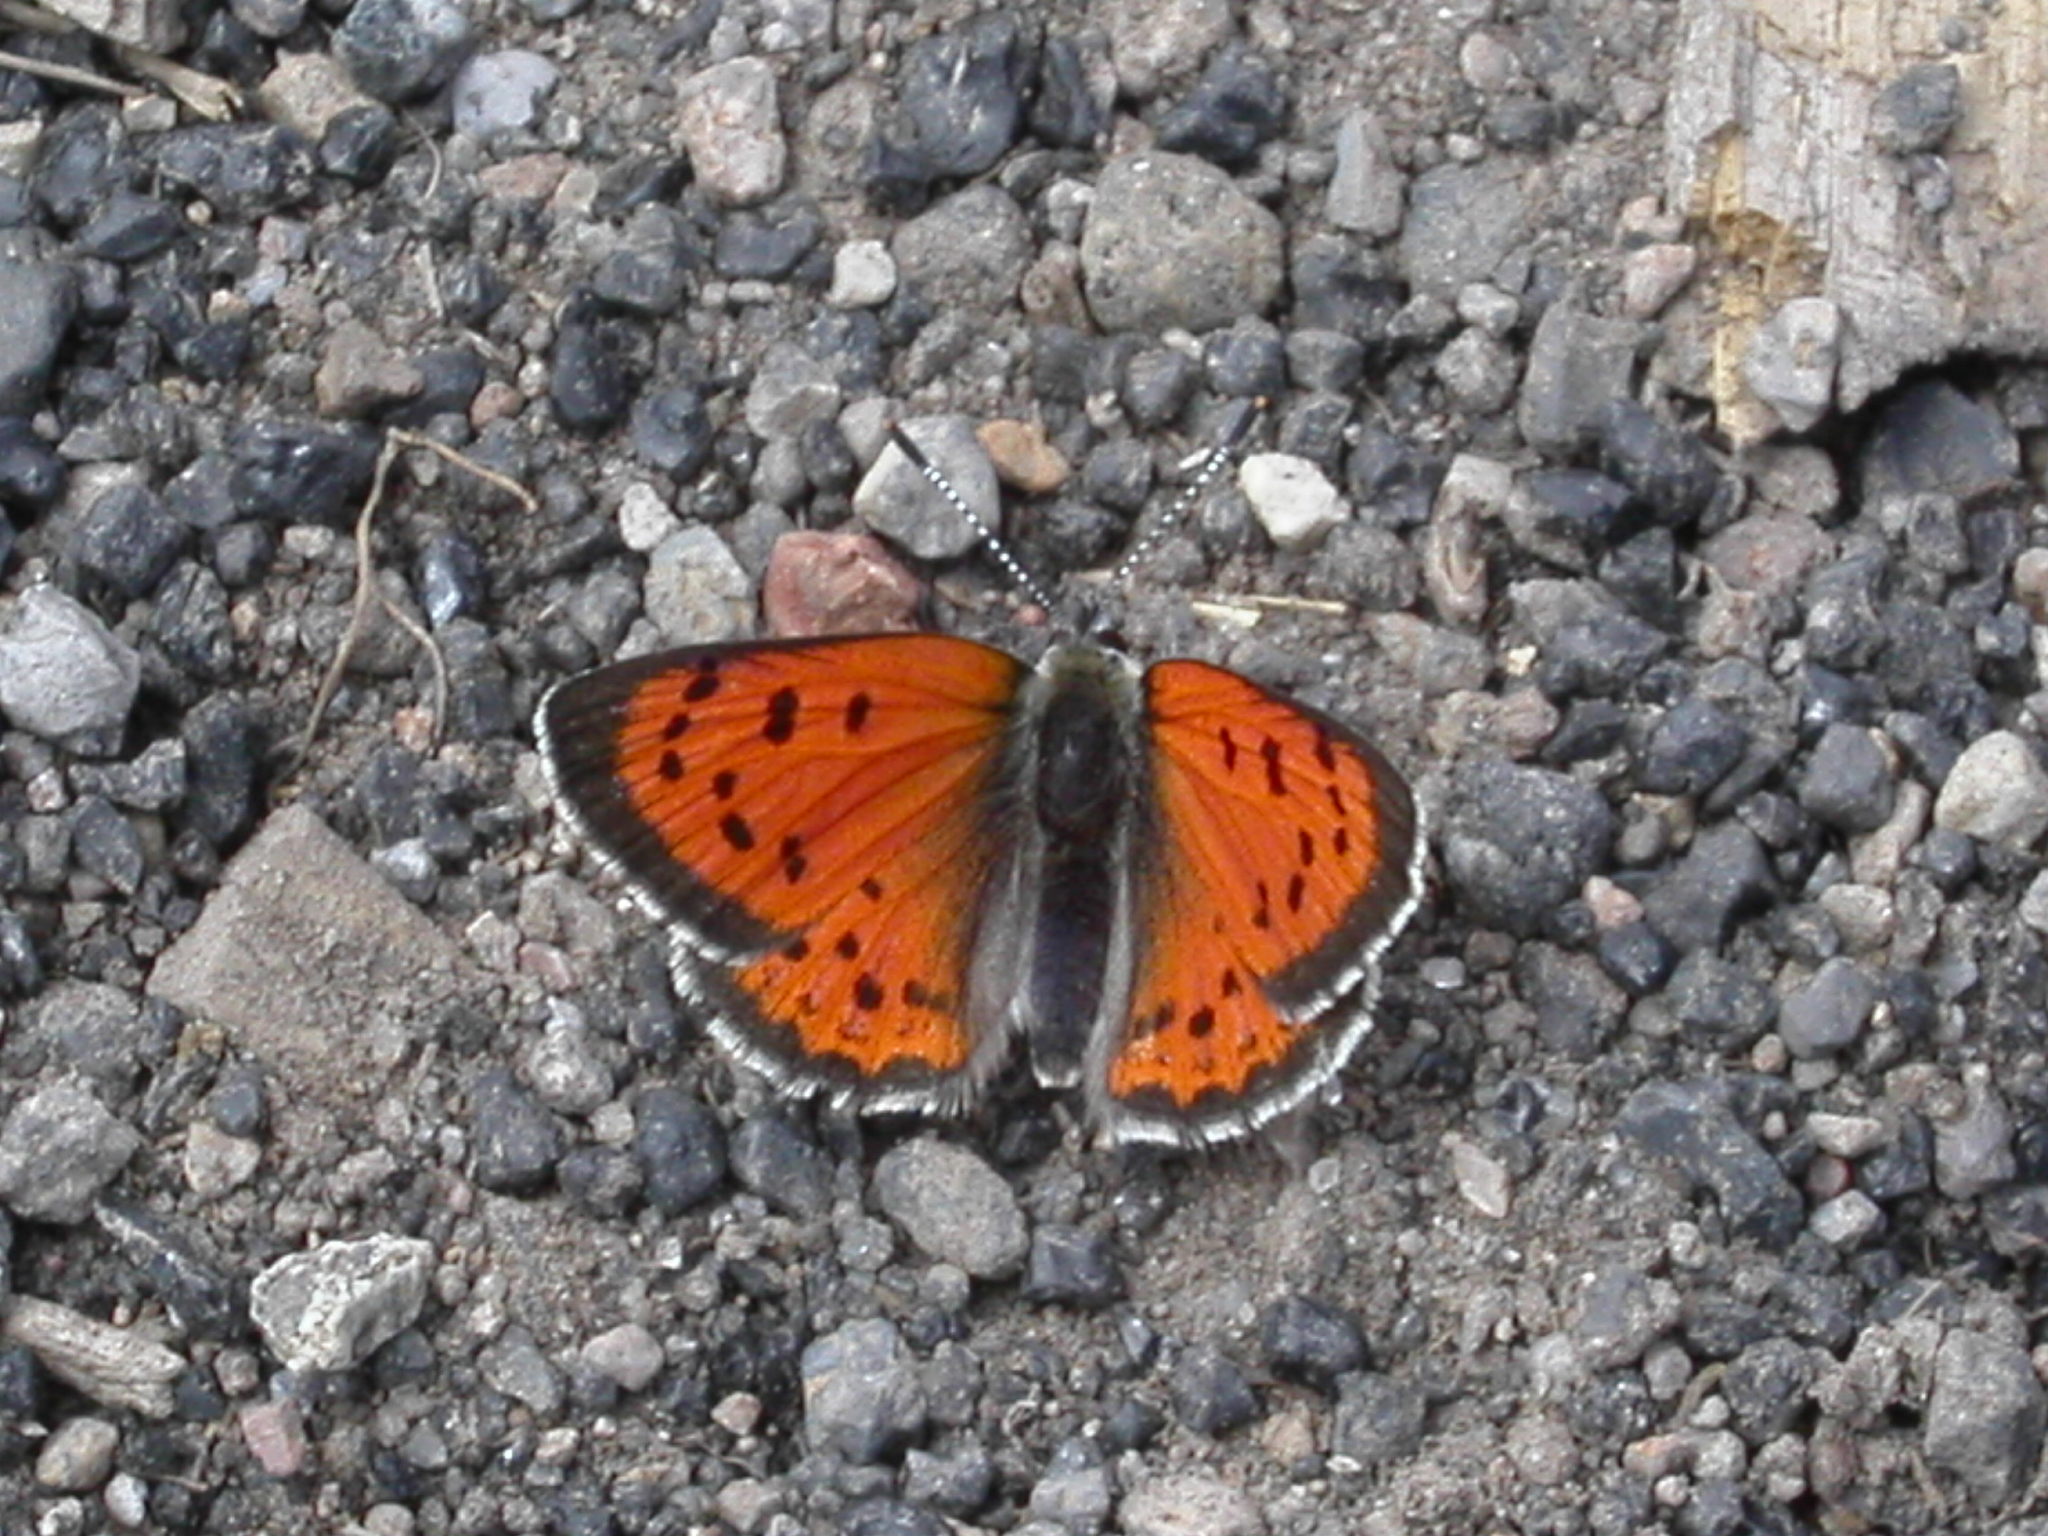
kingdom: Animalia
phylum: Arthropoda
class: Insecta
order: Lepidoptera
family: Lycaenidae
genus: Lycaena
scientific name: Lycaena cupreus
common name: Lustrous copper
